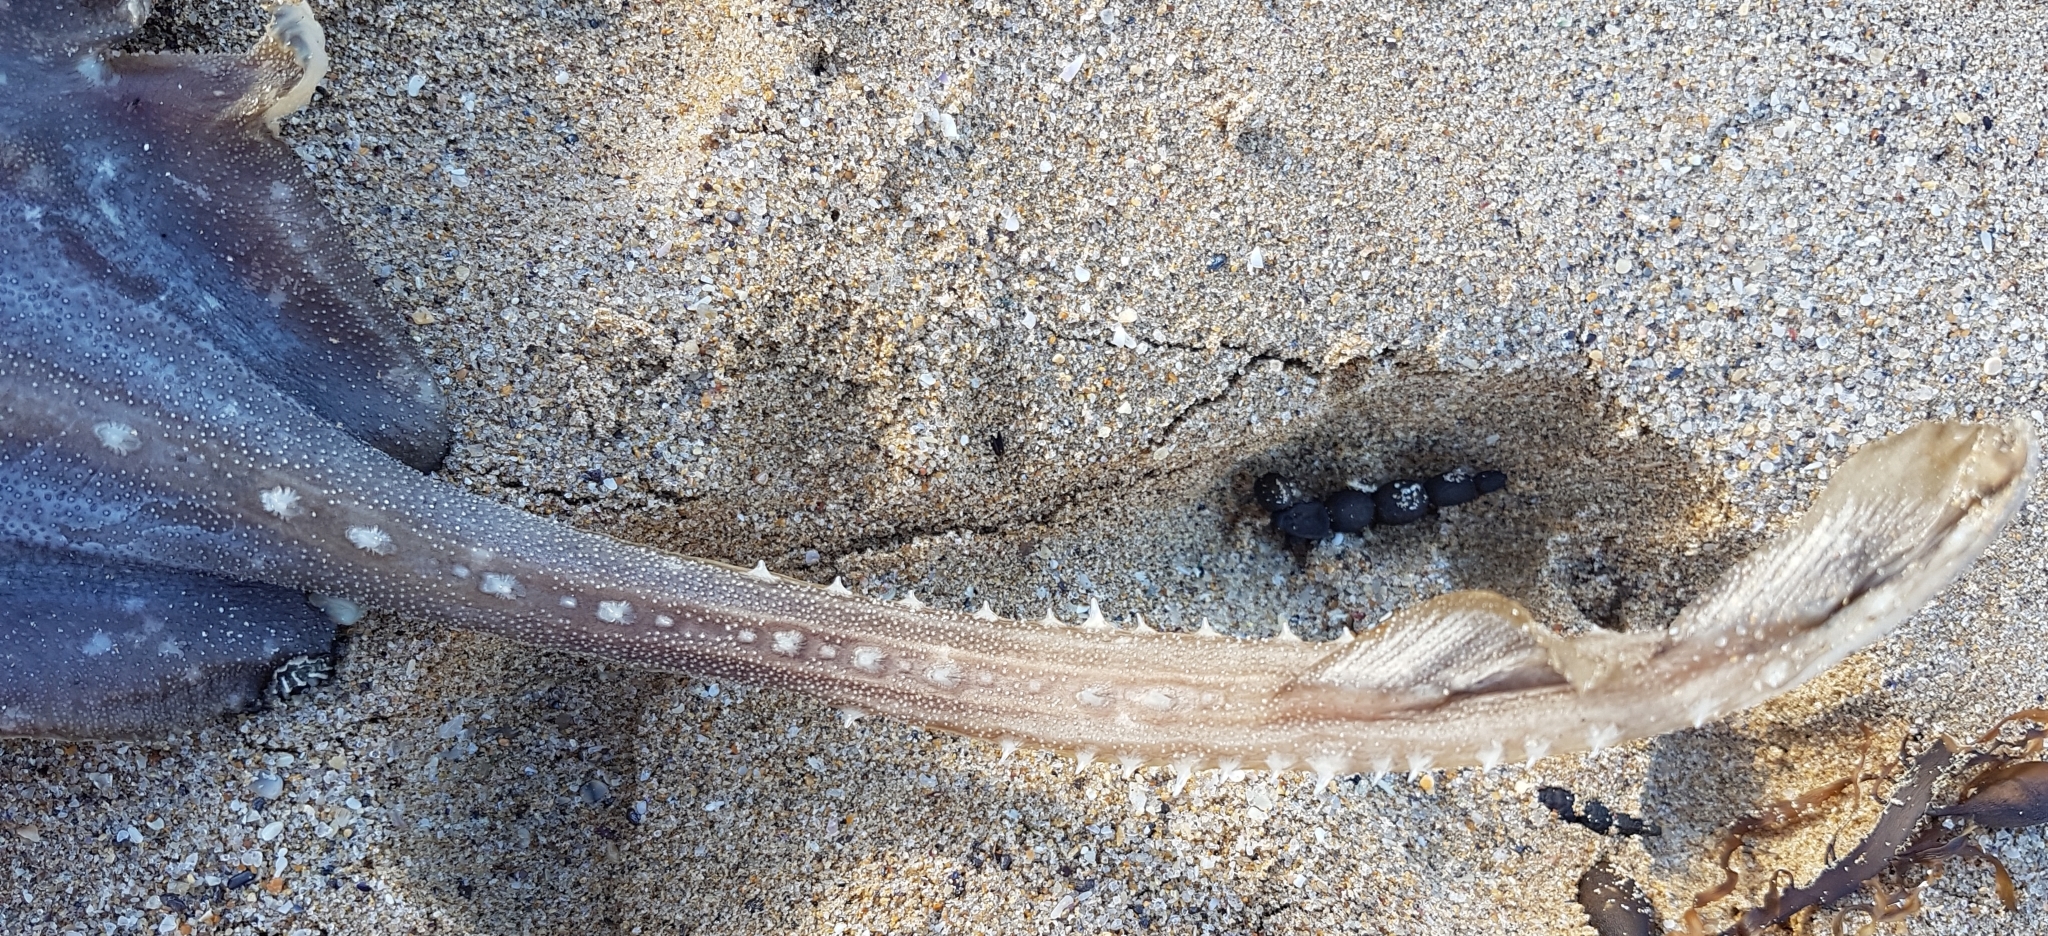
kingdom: Animalia
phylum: Chordata
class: Elasmobranchii
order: Rajiformes
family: Rajidae
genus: Dipturus
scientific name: Dipturus whitleyi
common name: Wedgenose skate
